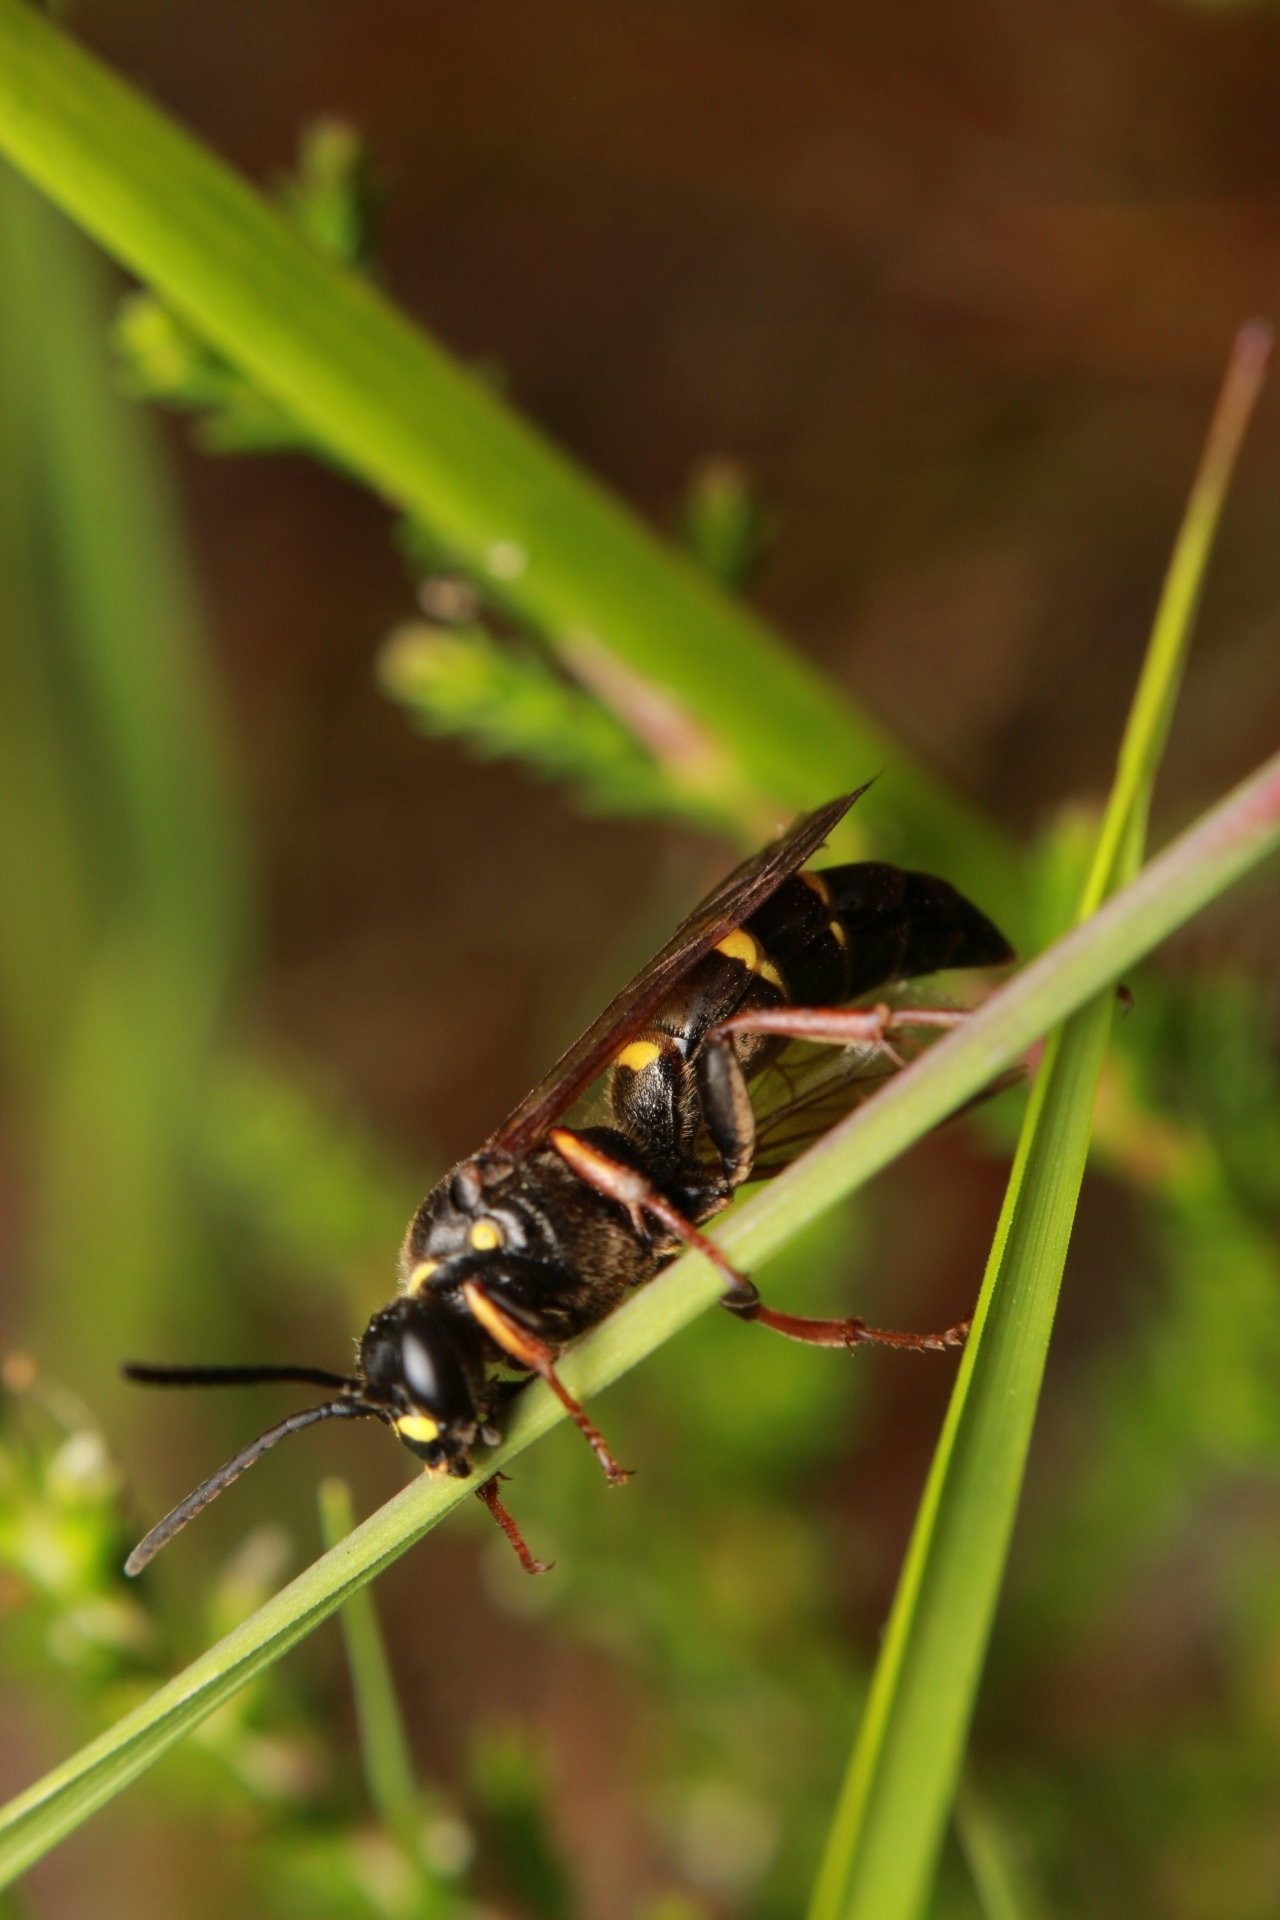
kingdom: Animalia
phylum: Arthropoda
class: Insecta
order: Hymenoptera
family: Crabronidae
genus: Argogorytes
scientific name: Argogorytes mystaceus
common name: Field digger wasp
